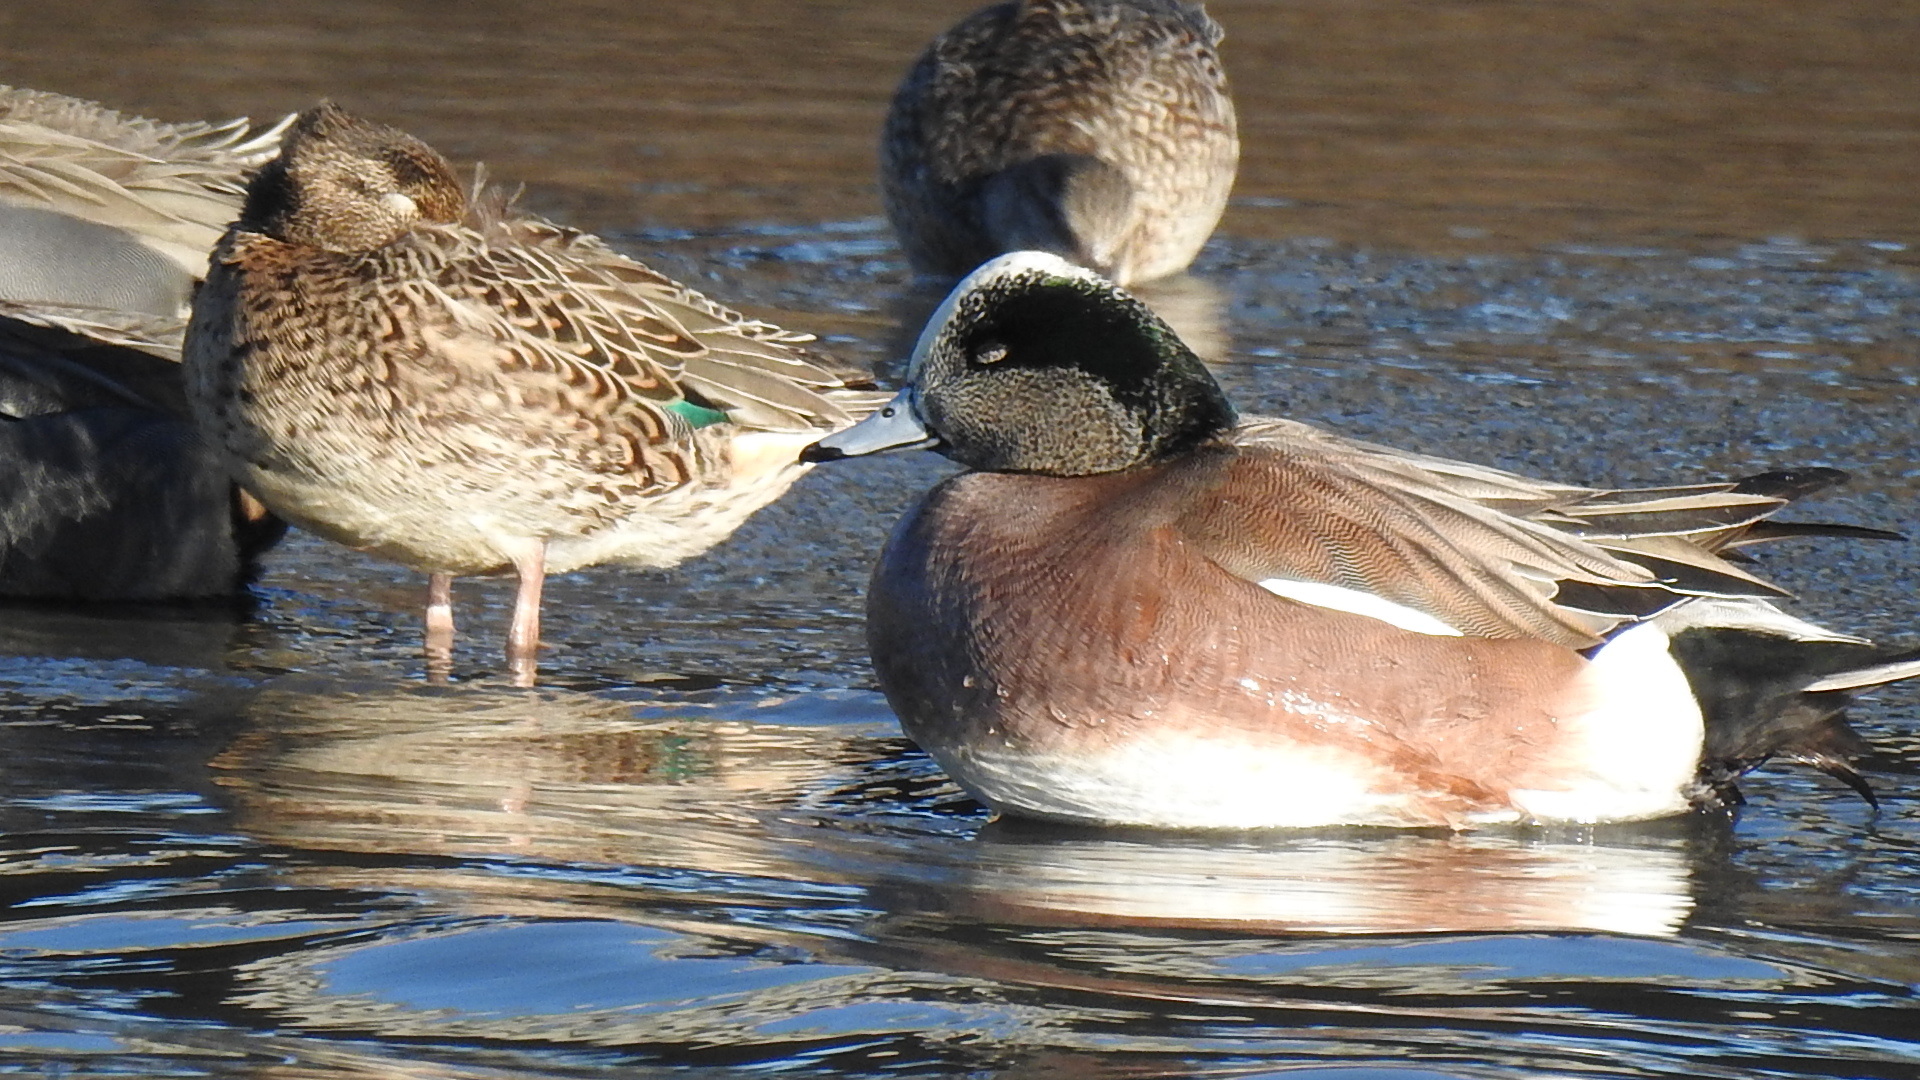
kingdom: Animalia
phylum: Chordata
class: Aves
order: Anseriformes
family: Anatidae
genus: Mareca
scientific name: Mareca americana
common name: American wigeon
